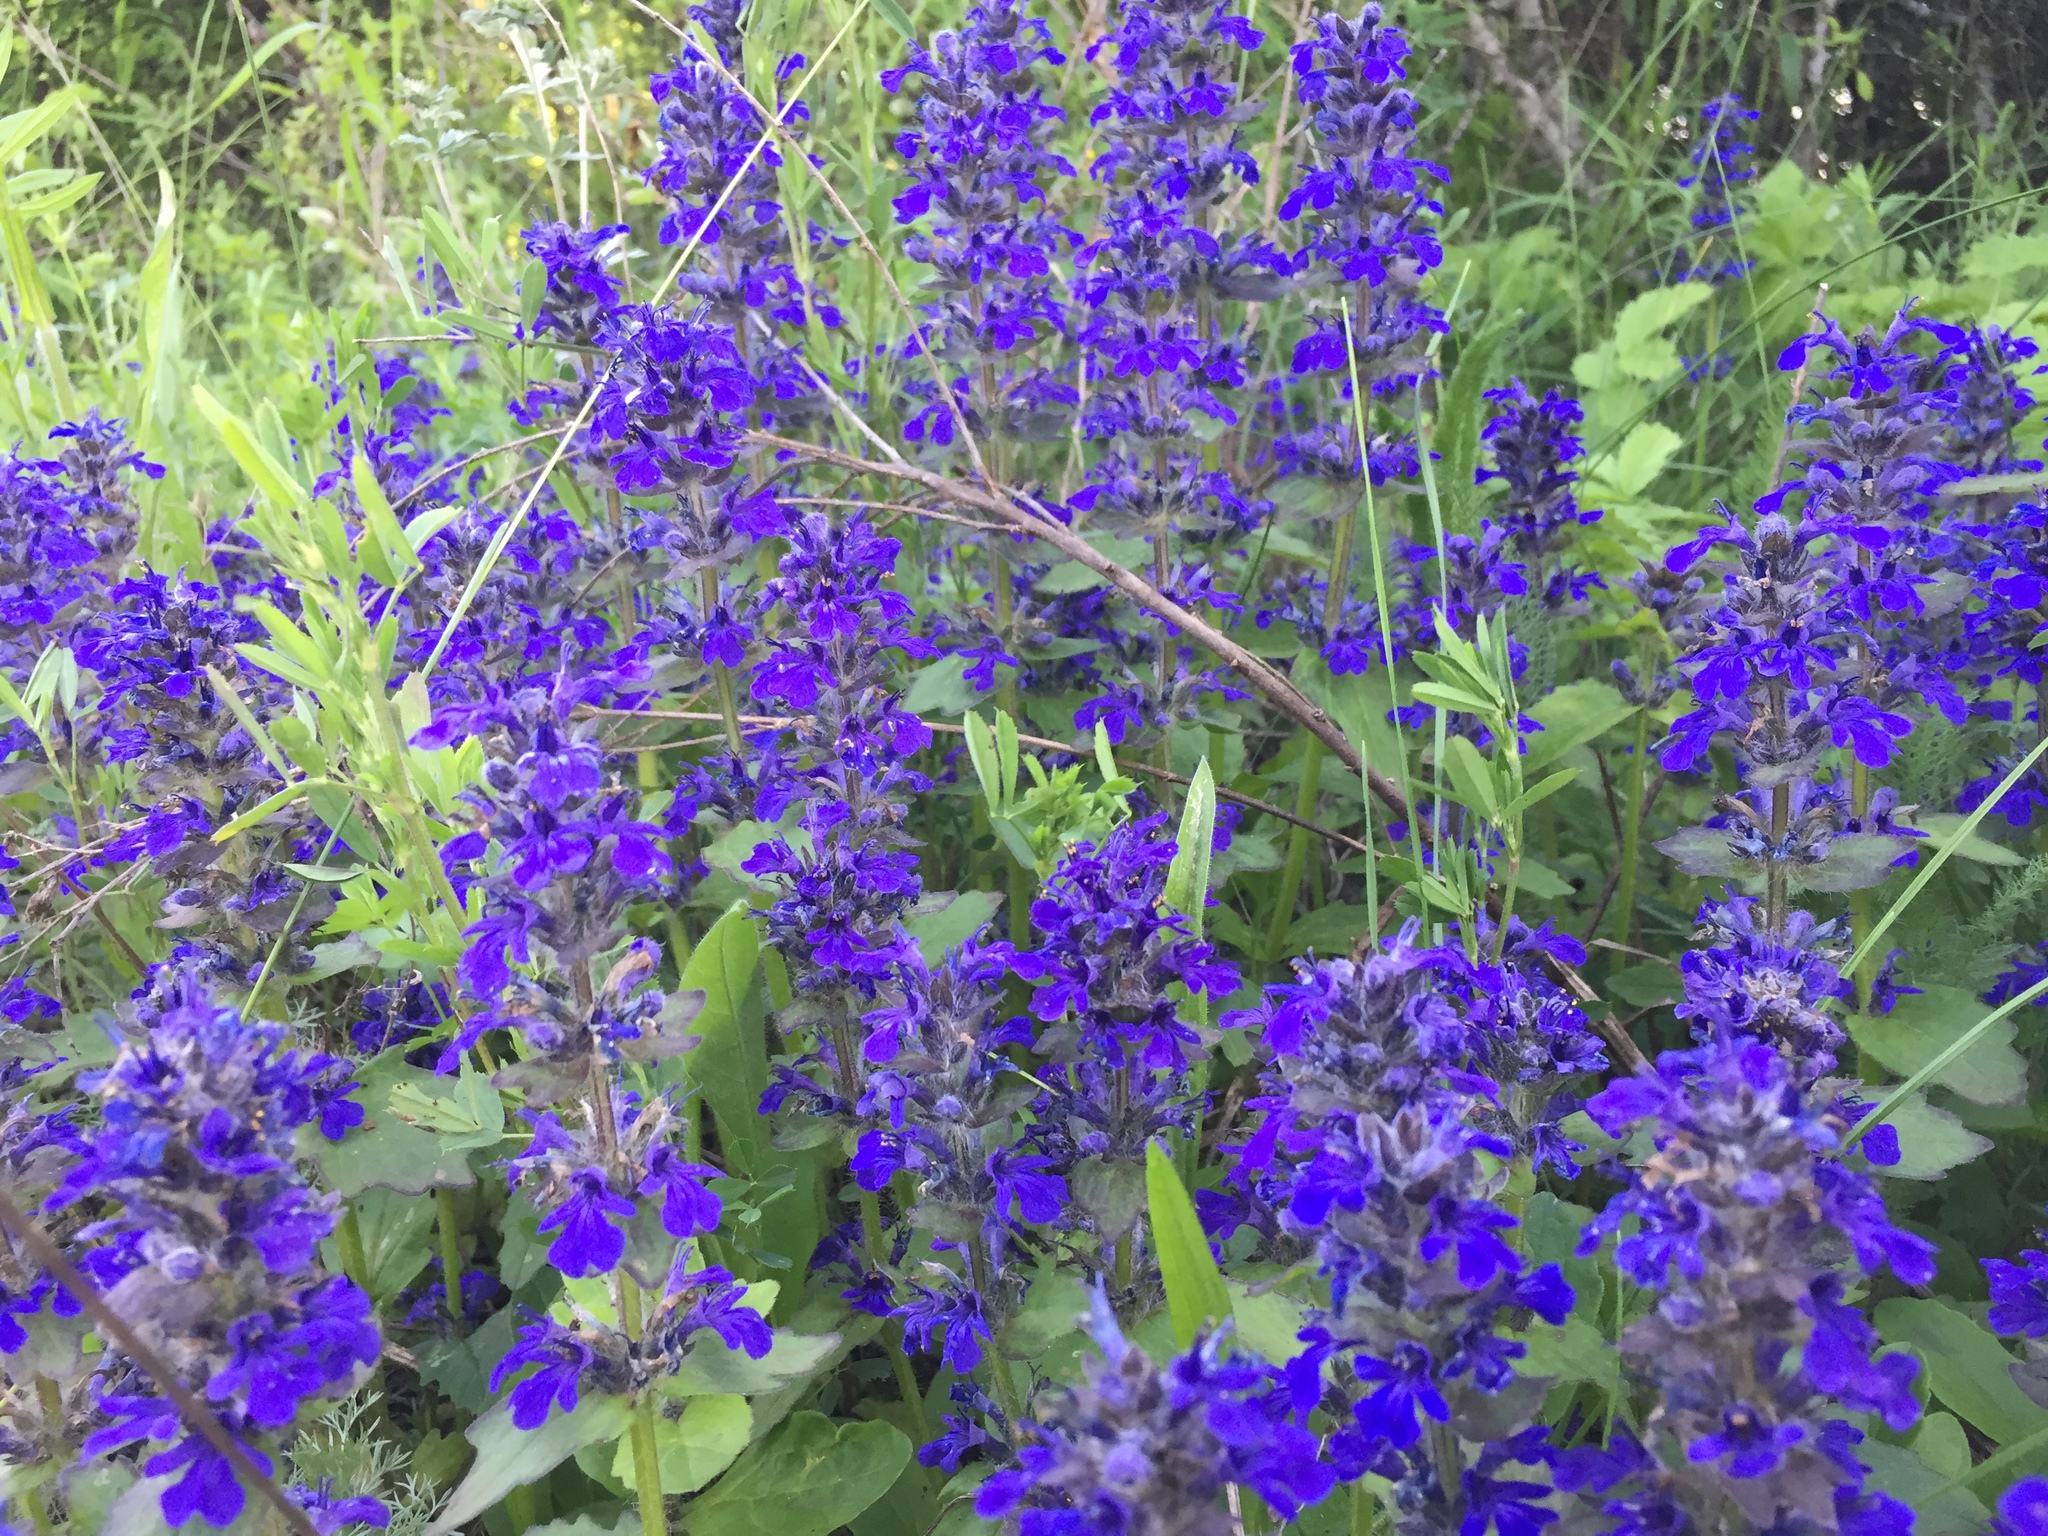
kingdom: Plantae
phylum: Tracheophyta
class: Magnoliopsida
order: Lamiales
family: Lamiaceae
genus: Ajuga
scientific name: Ajuga genevensis
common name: Blue bugle
